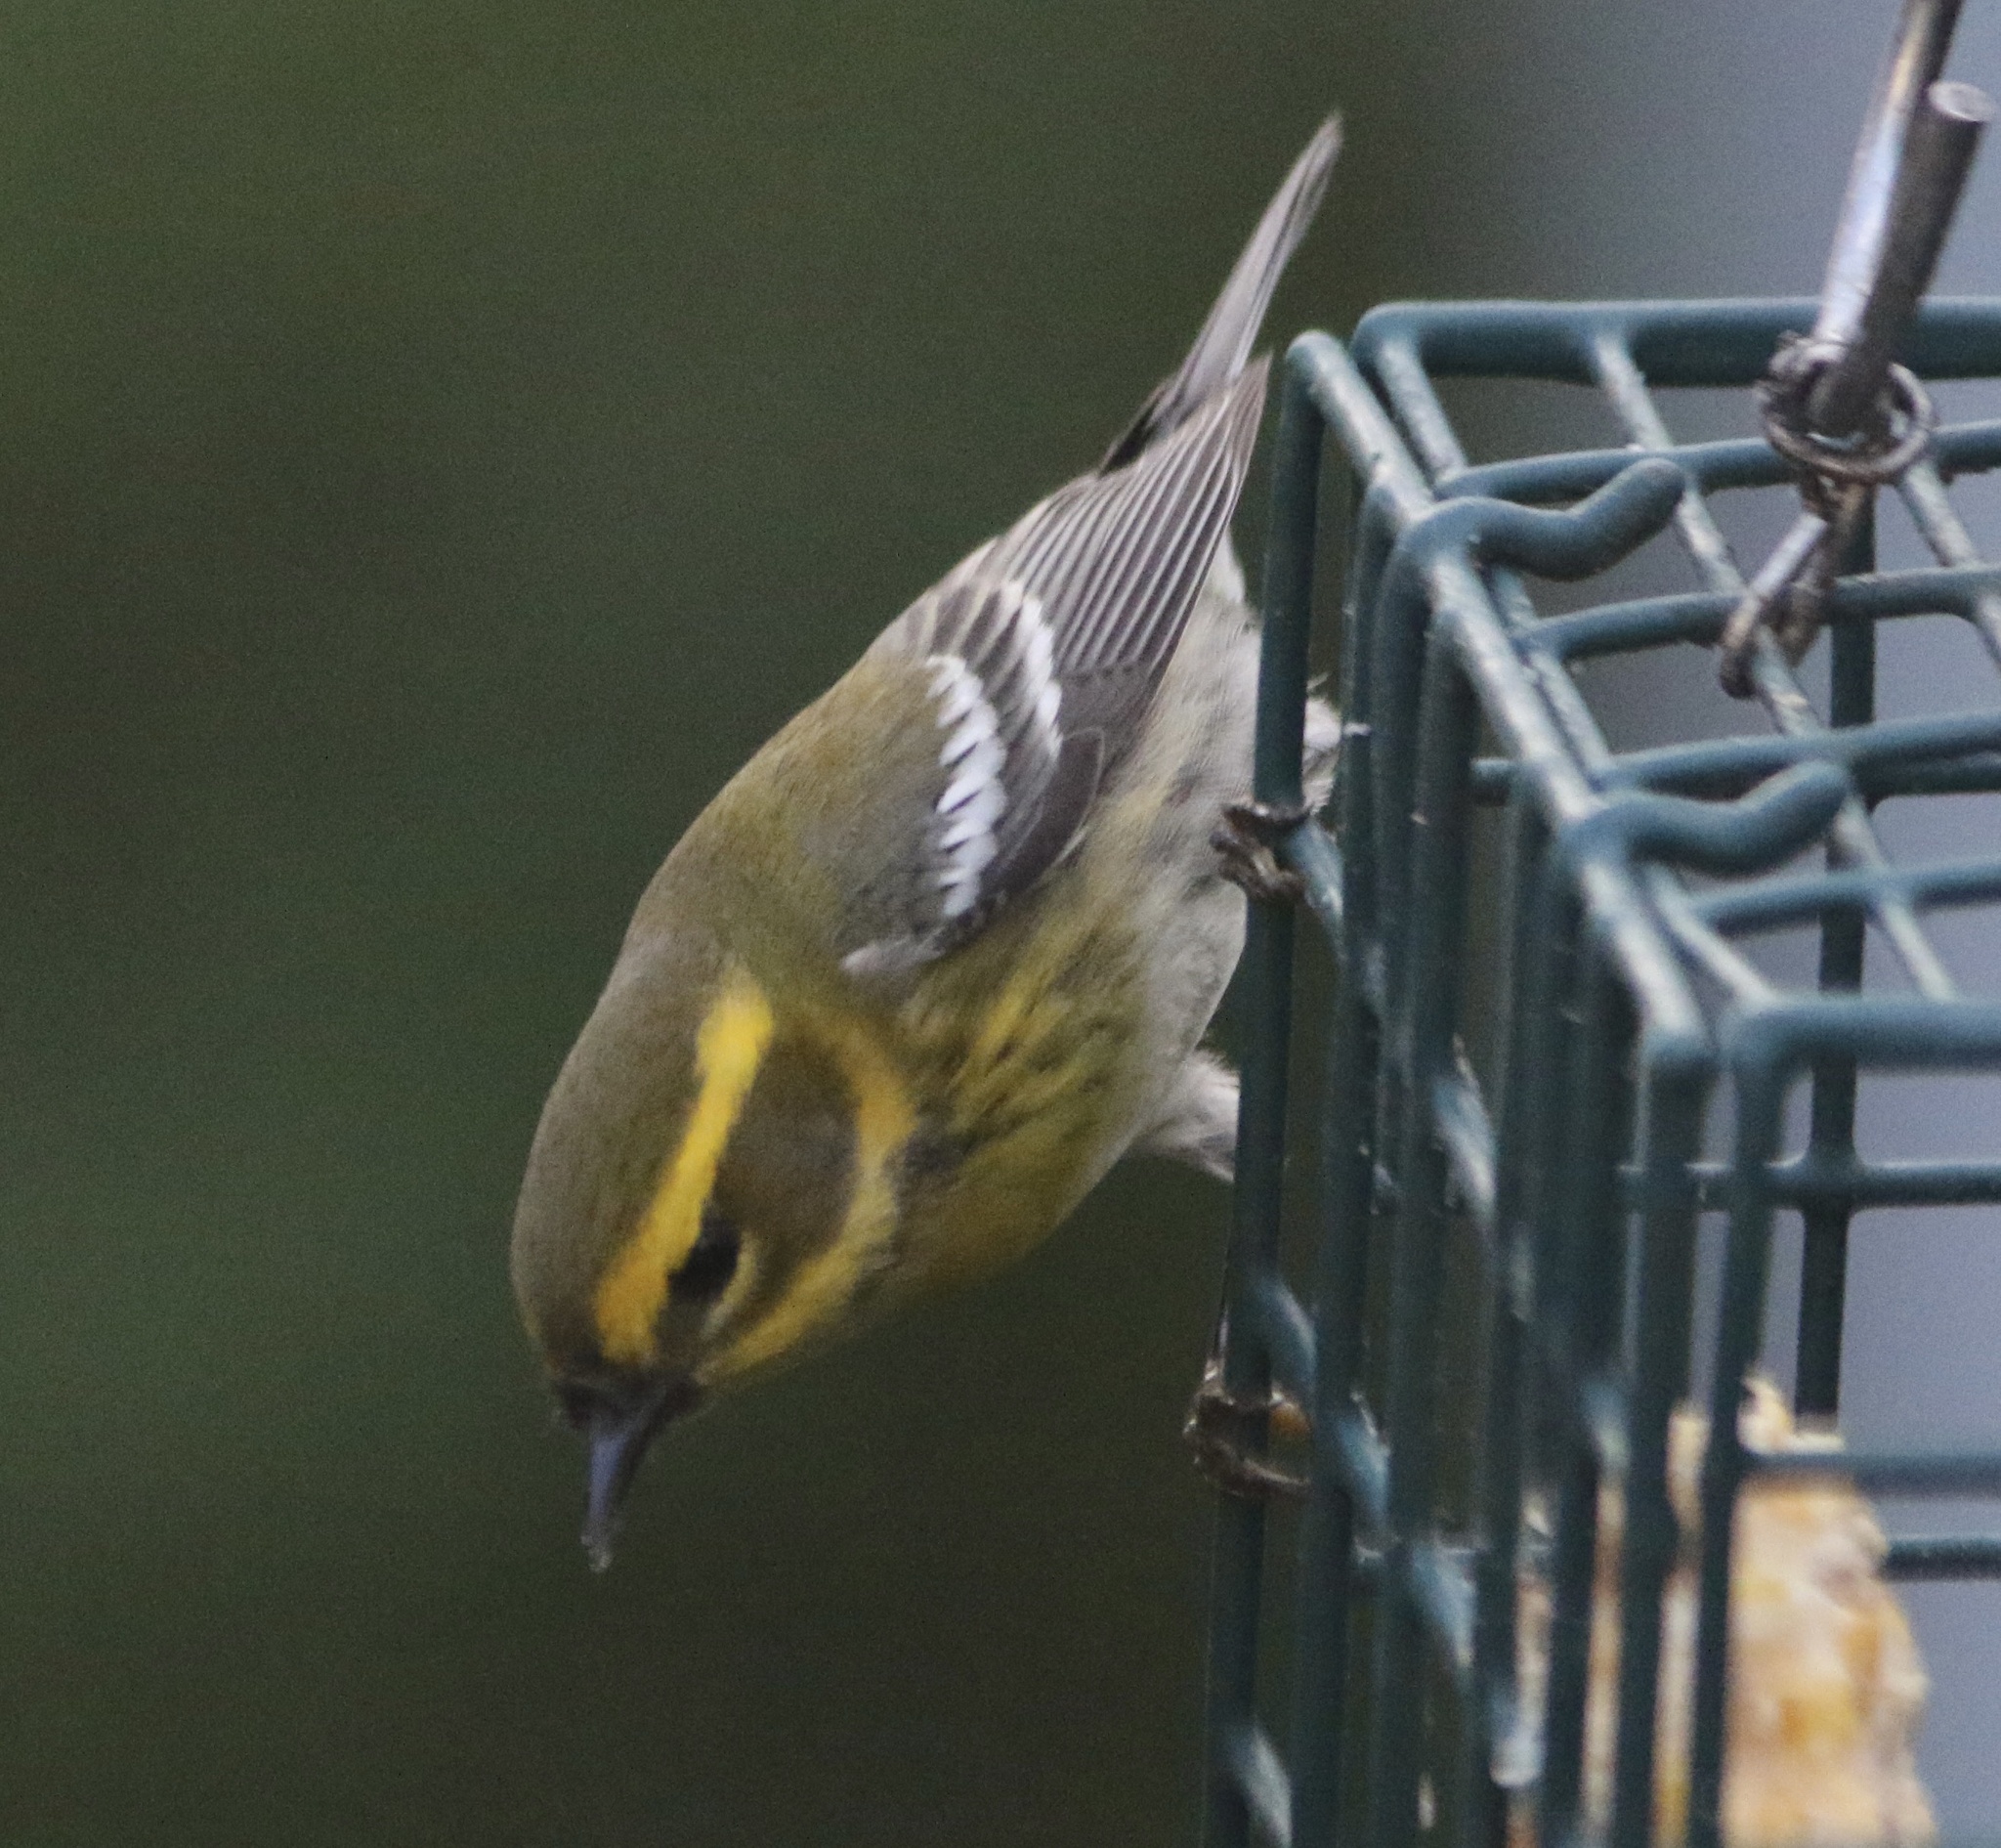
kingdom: Animalia
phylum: Chordata
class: Aves
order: Passeriformes
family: Parulidae
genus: Setophaga
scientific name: Setophaga townsendi
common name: Townsend's warbler
